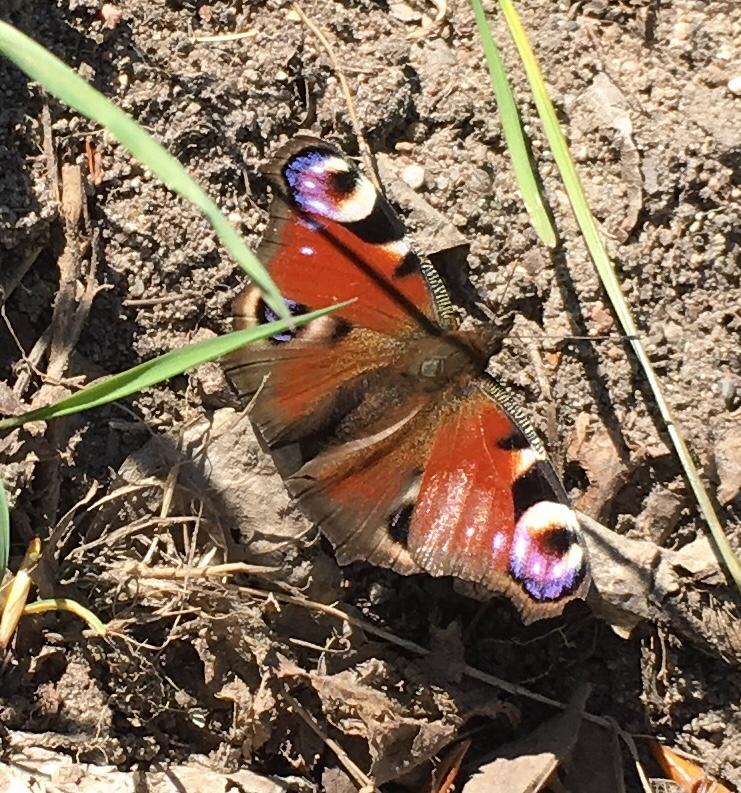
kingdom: Animalia
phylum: Arthropoda
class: Insecta
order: Lepidoptera
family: Nymphalidae
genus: Aglais
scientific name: Aglais io
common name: Peacock
